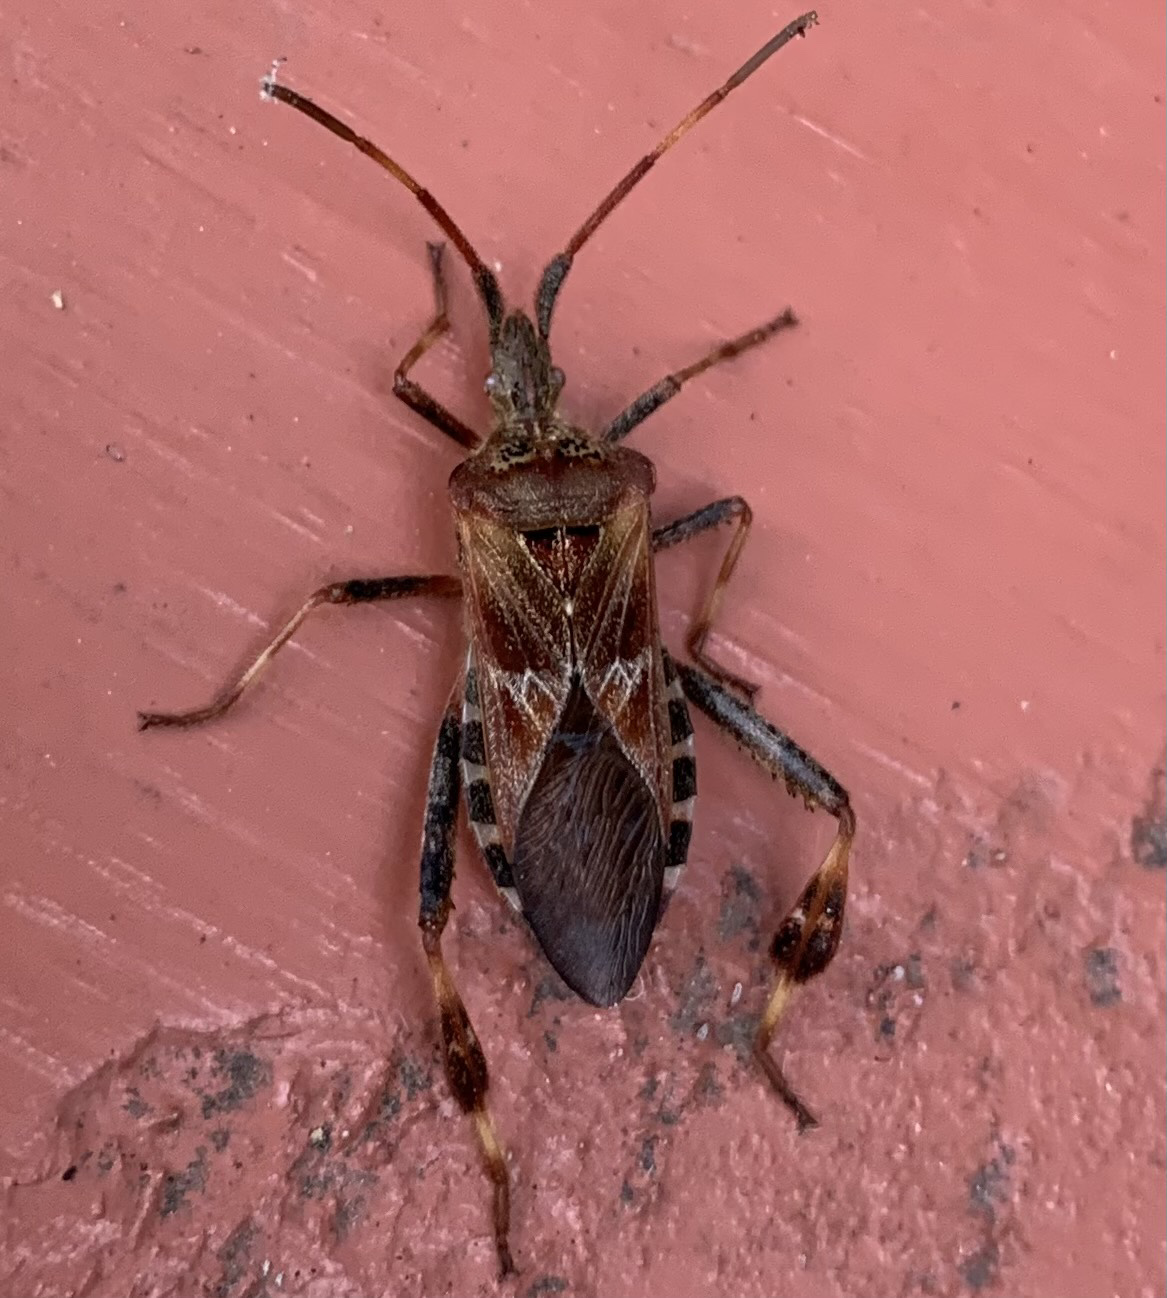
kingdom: Animalia
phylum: Arthropoda
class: Insecta
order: Hemiptera
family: Coreidae
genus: Leptoglossus
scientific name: Leptoglossus occidentalis
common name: Western conifer-seed bug
